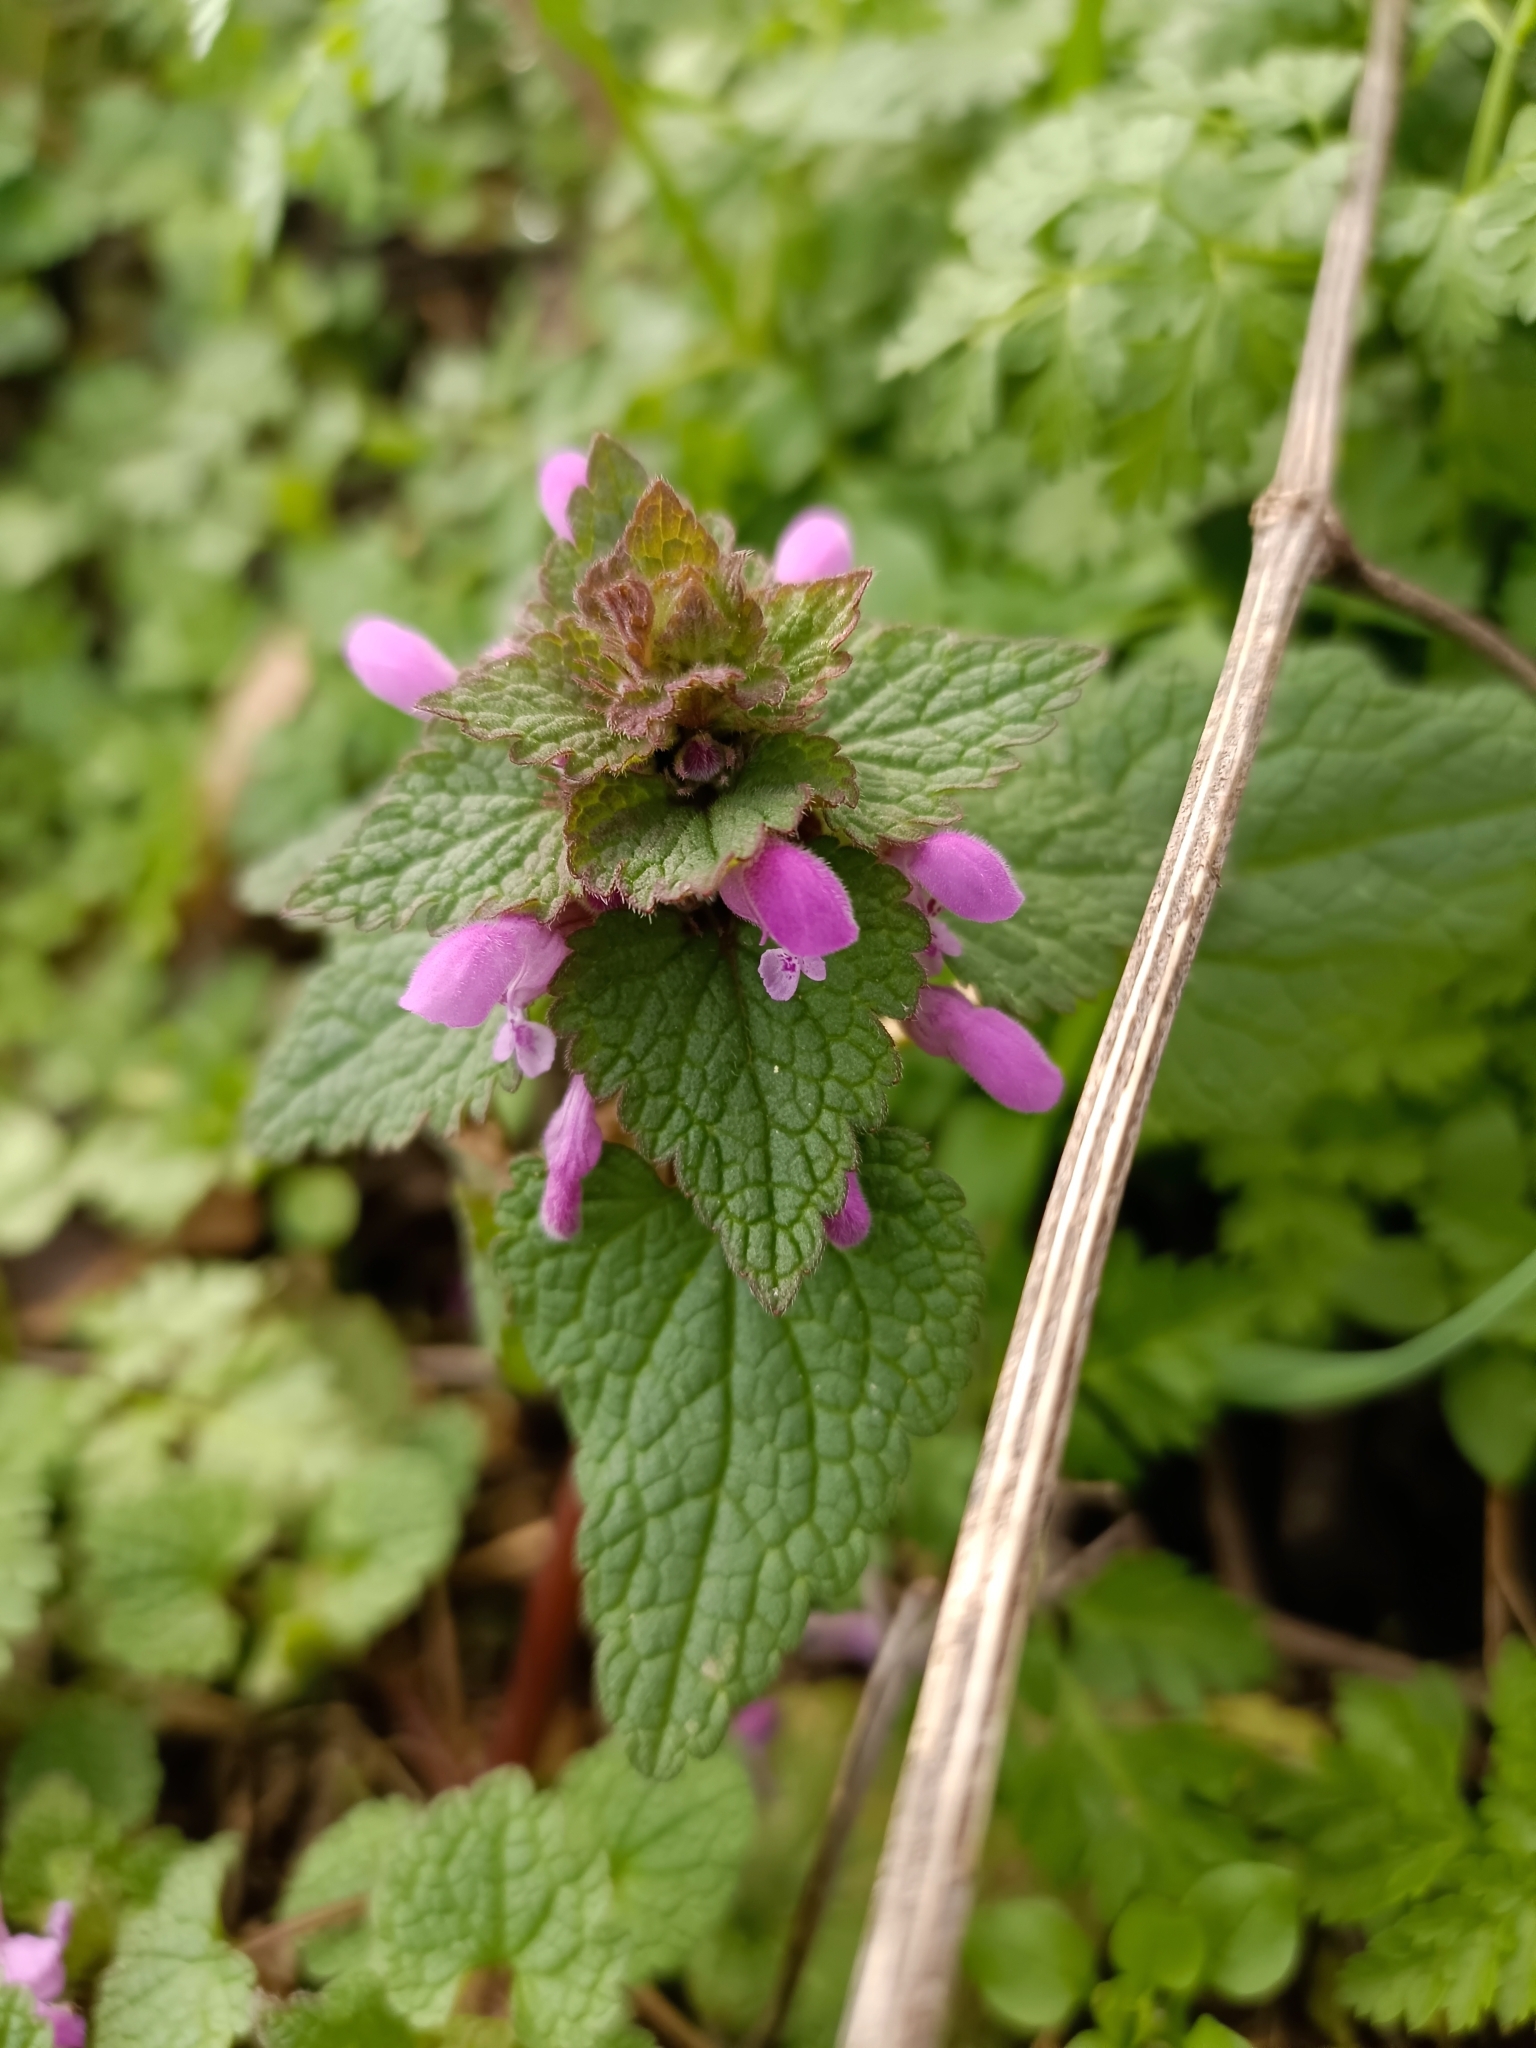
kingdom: Plantae
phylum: Tracheophyta
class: Magnoliopsida
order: Lamiales
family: Lamiaceae
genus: Lamium
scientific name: Lamium purpureum
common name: Red dead-nettle
